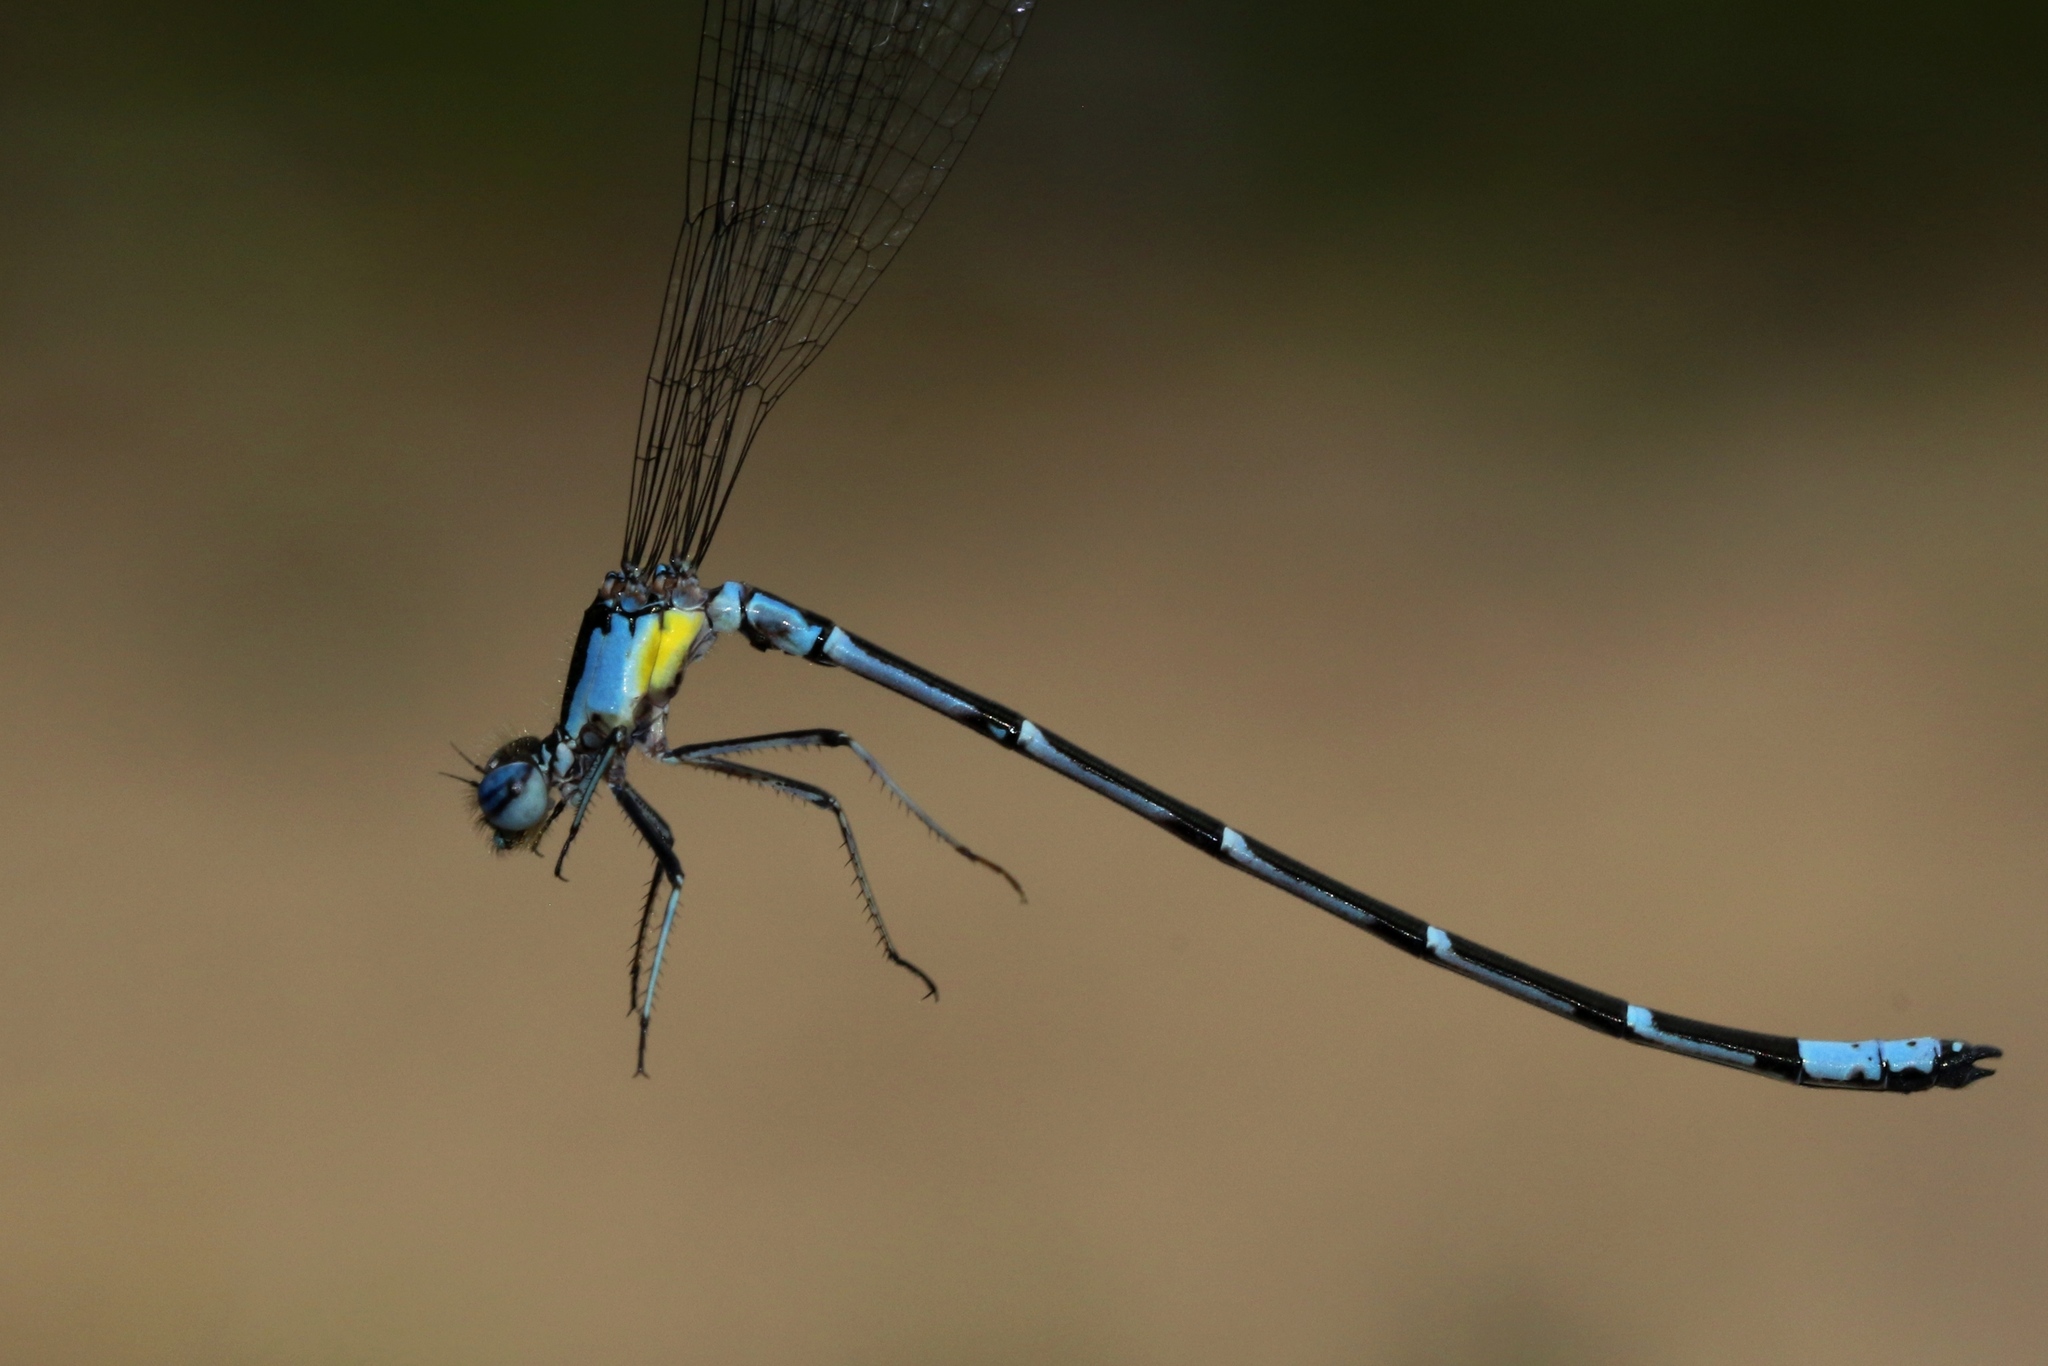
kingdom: Animalia
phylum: Arthropoda
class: Insecta
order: Odonata
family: Coenagrionidae
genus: Chromagrion
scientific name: Chromagrion conditum
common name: Aurora damsel
